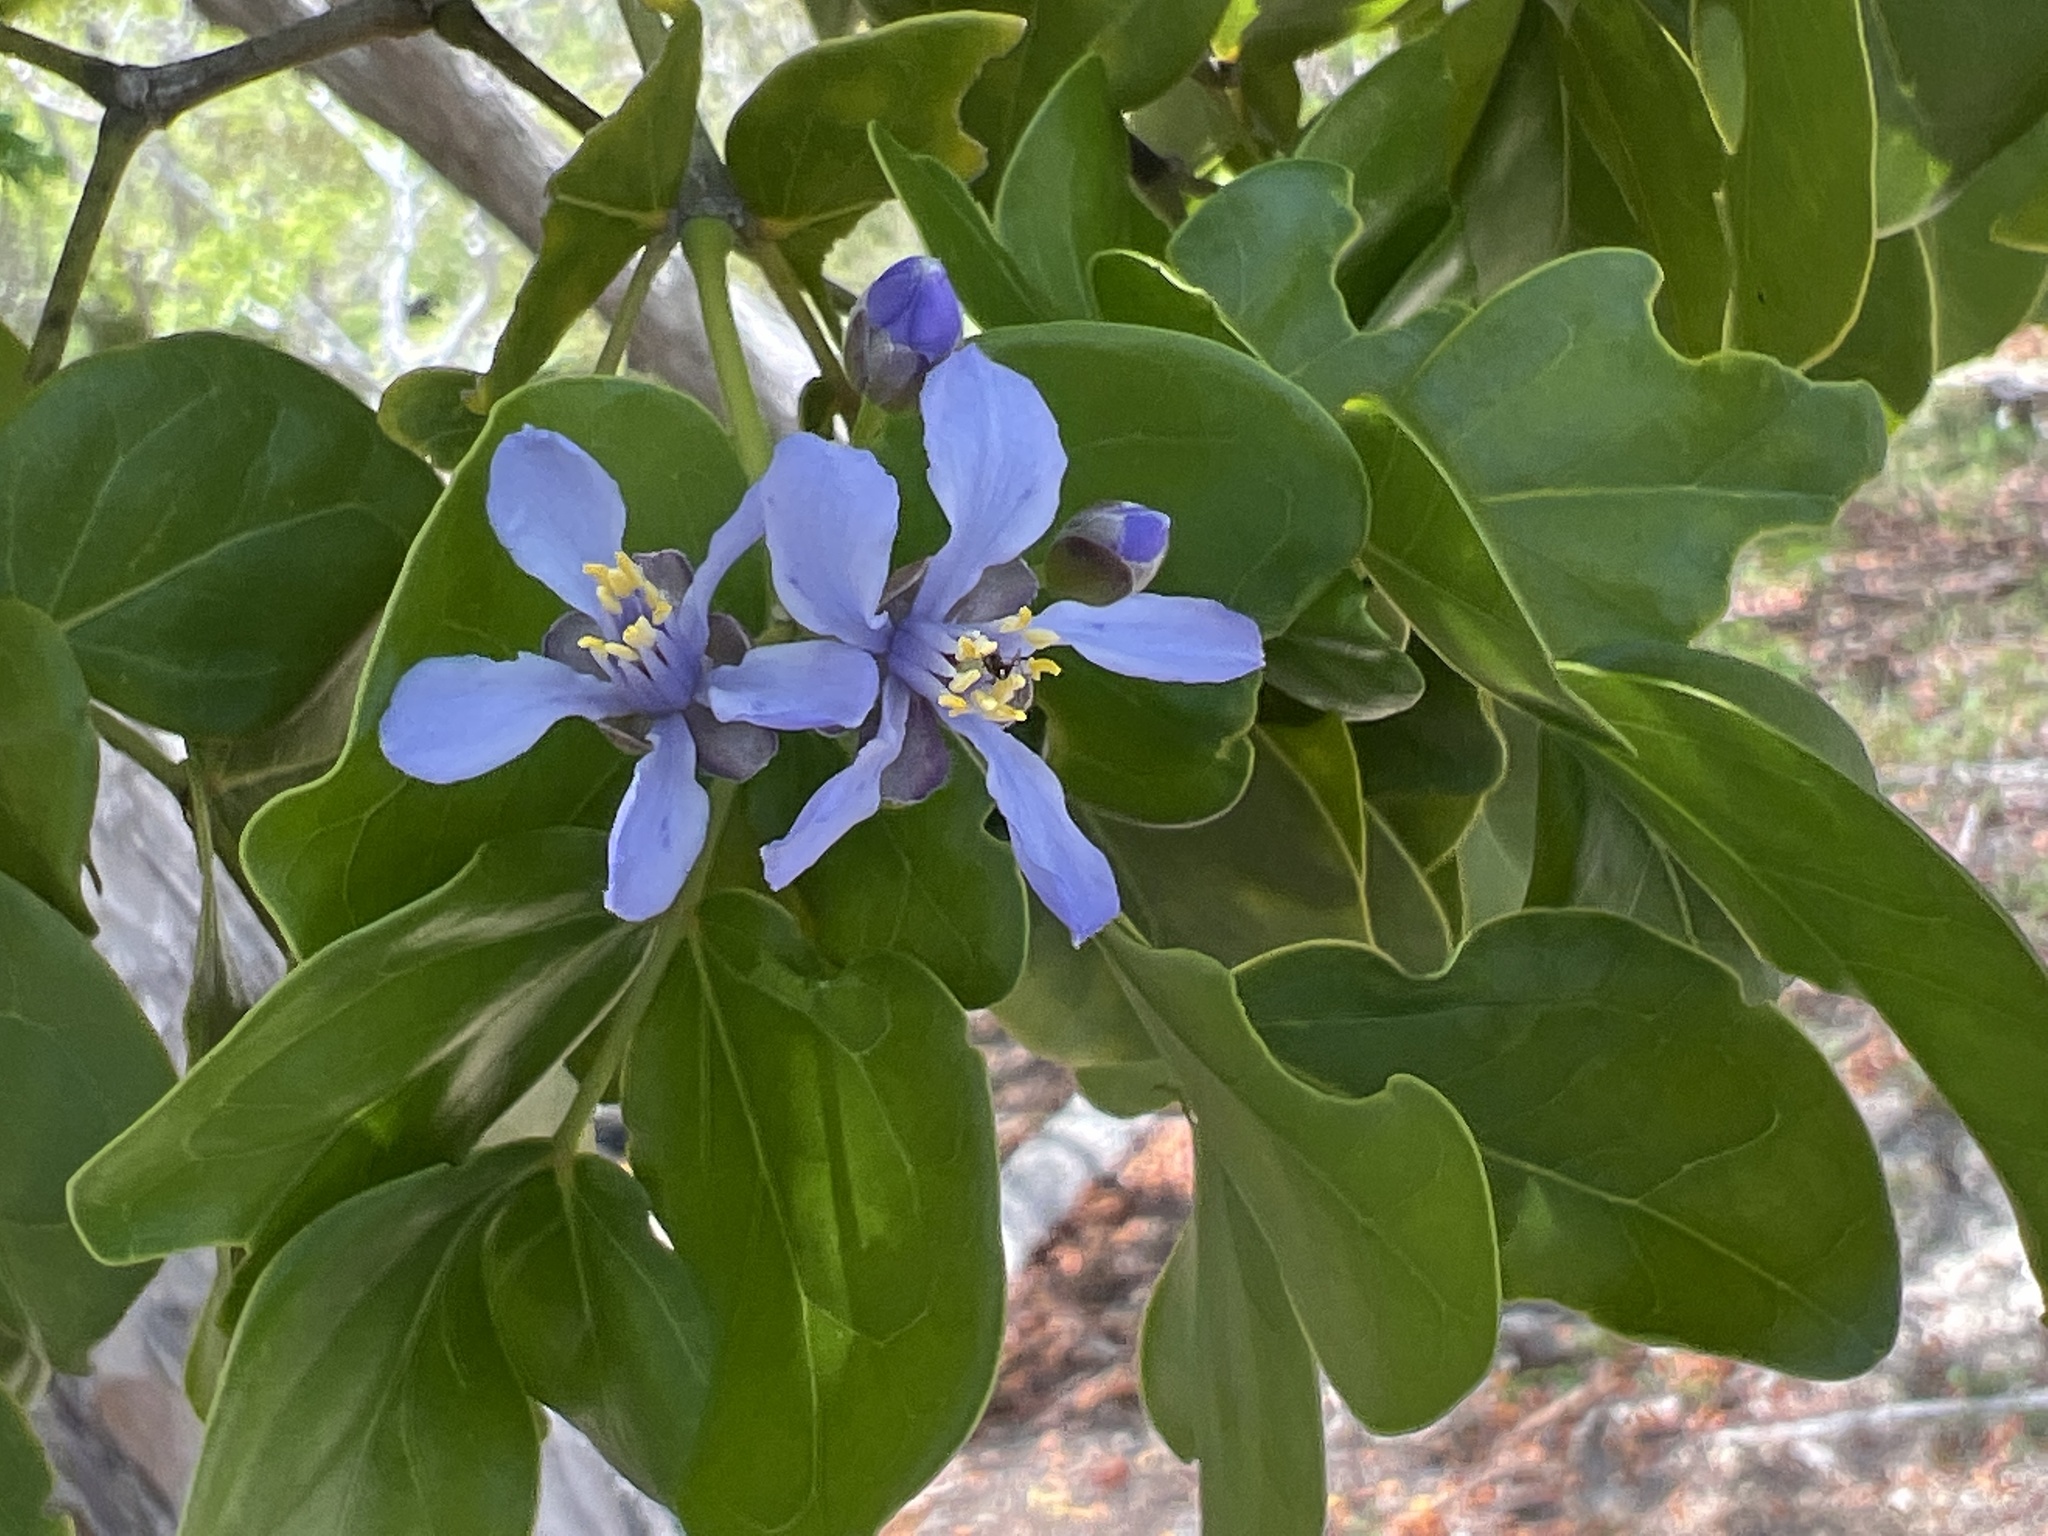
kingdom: Plantae
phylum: Tracheophyta
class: Magnoliopsida
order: Zygophyllales
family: Zygophyllaceae
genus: Guaiacum
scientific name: Guaiacum officinale
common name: Lignum vitae
